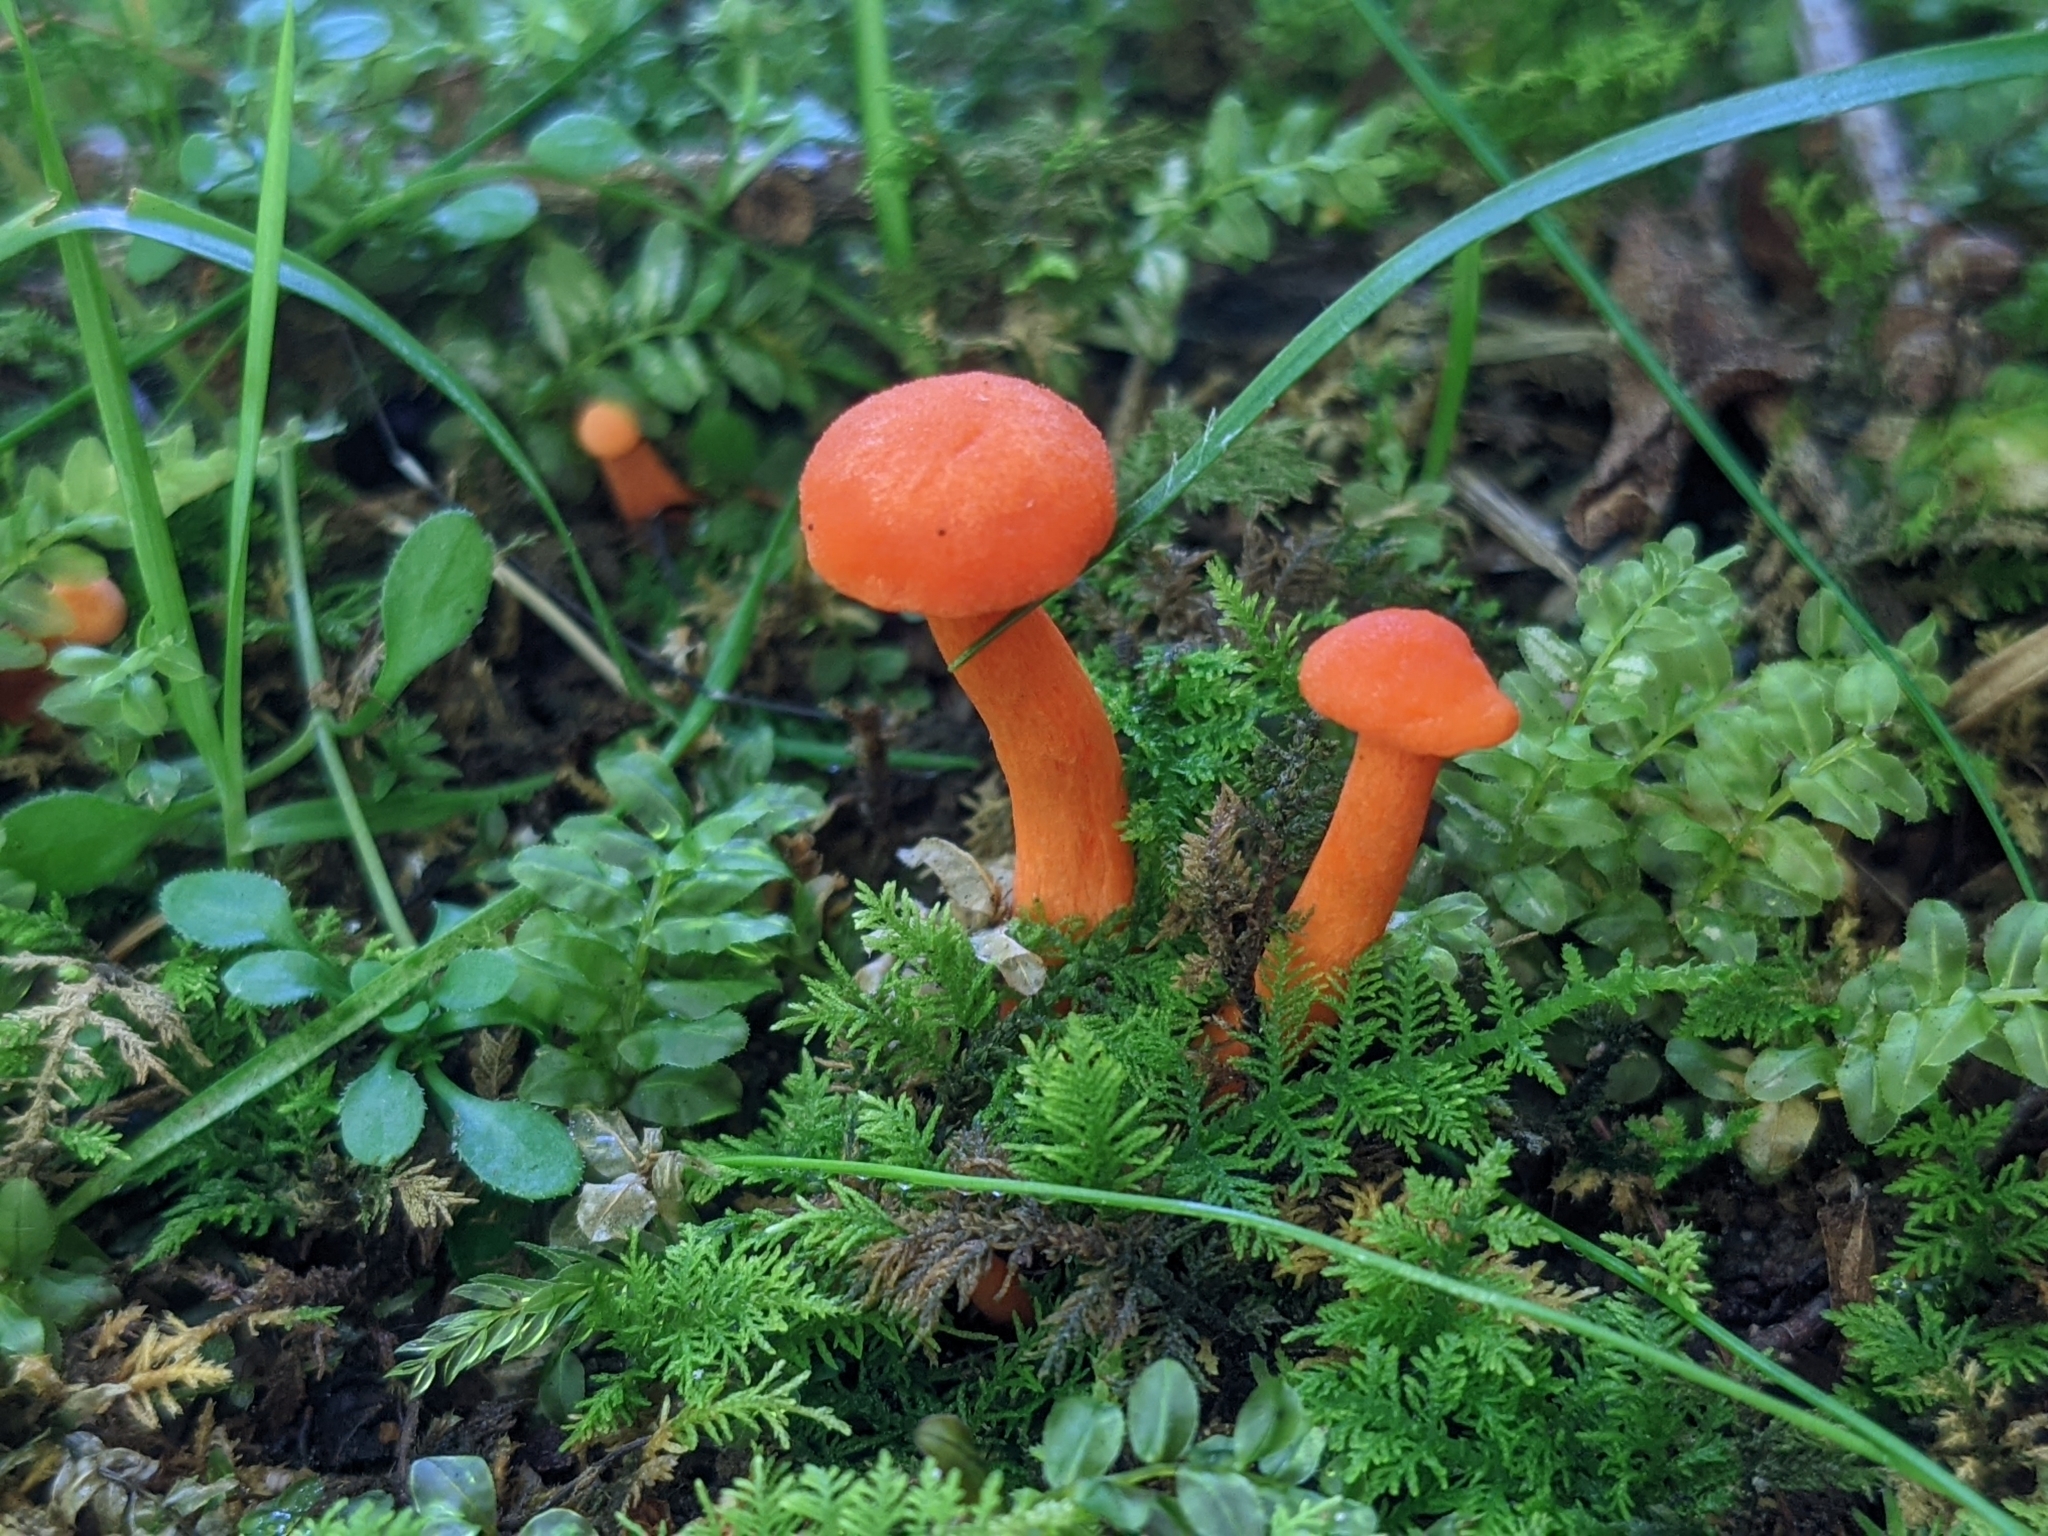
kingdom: Fungi
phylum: Basidiomycota
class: Agaricomycetes
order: Cantharellales
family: Hydnaceae
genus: Cantharellus
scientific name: Cantharellus cinnabarinus
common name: Cinnabar chanterelle
